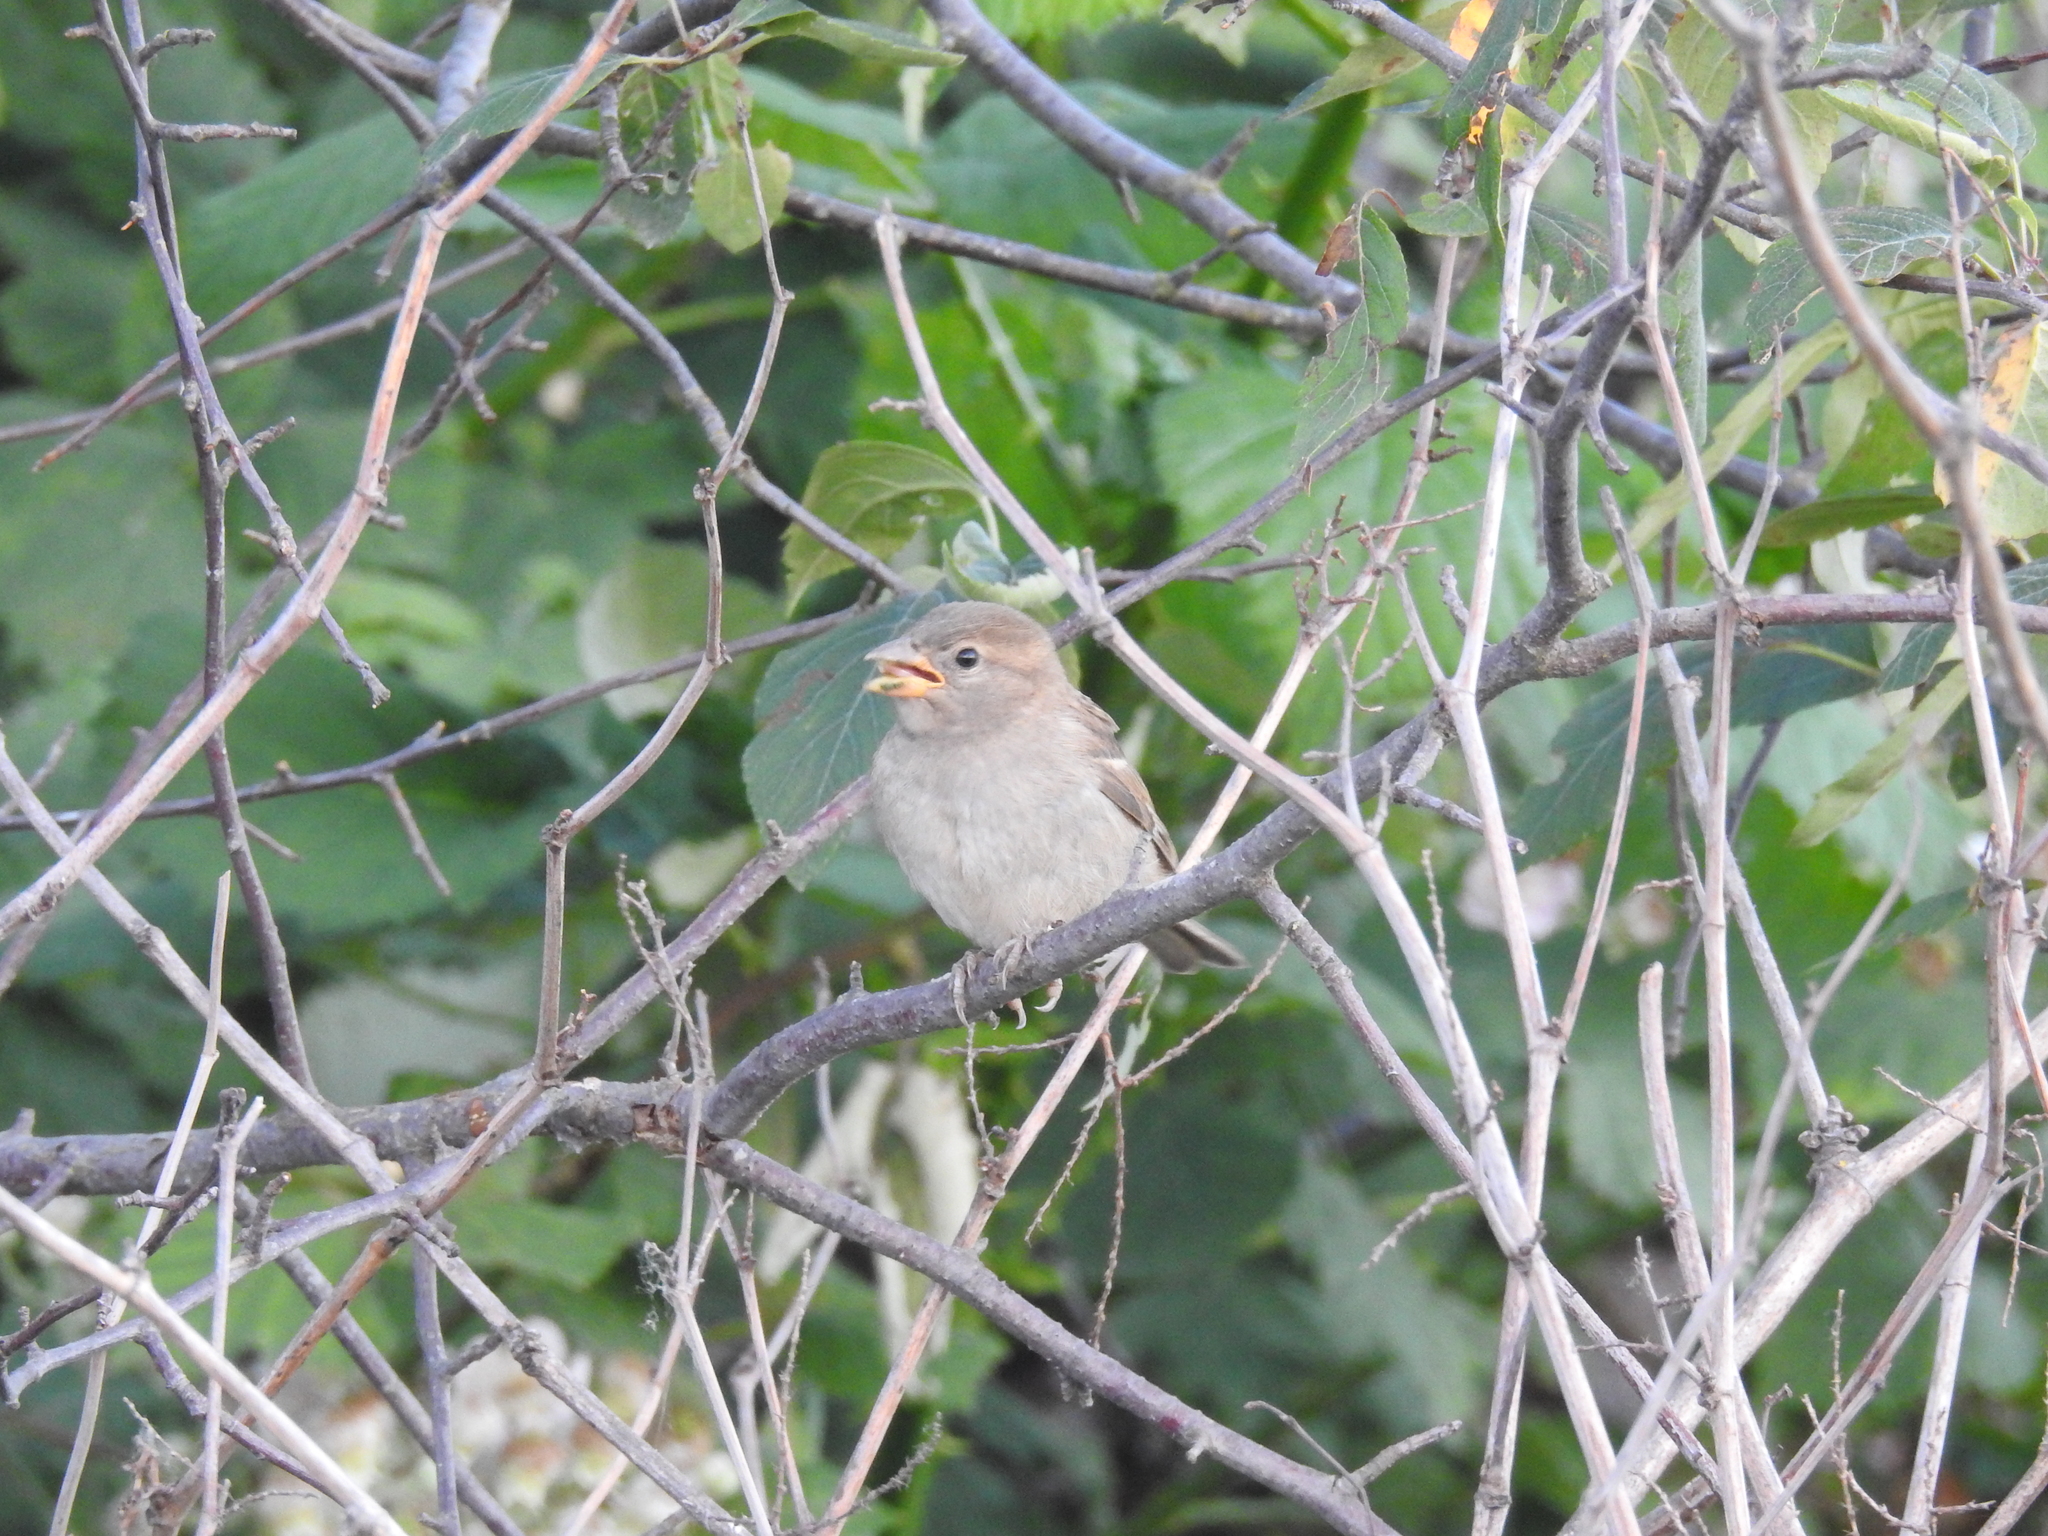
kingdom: Animalia
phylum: Chordata
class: Aves
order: Passeriformes
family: Passeridae
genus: Passer
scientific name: Passer domesticus
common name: House sparrow
